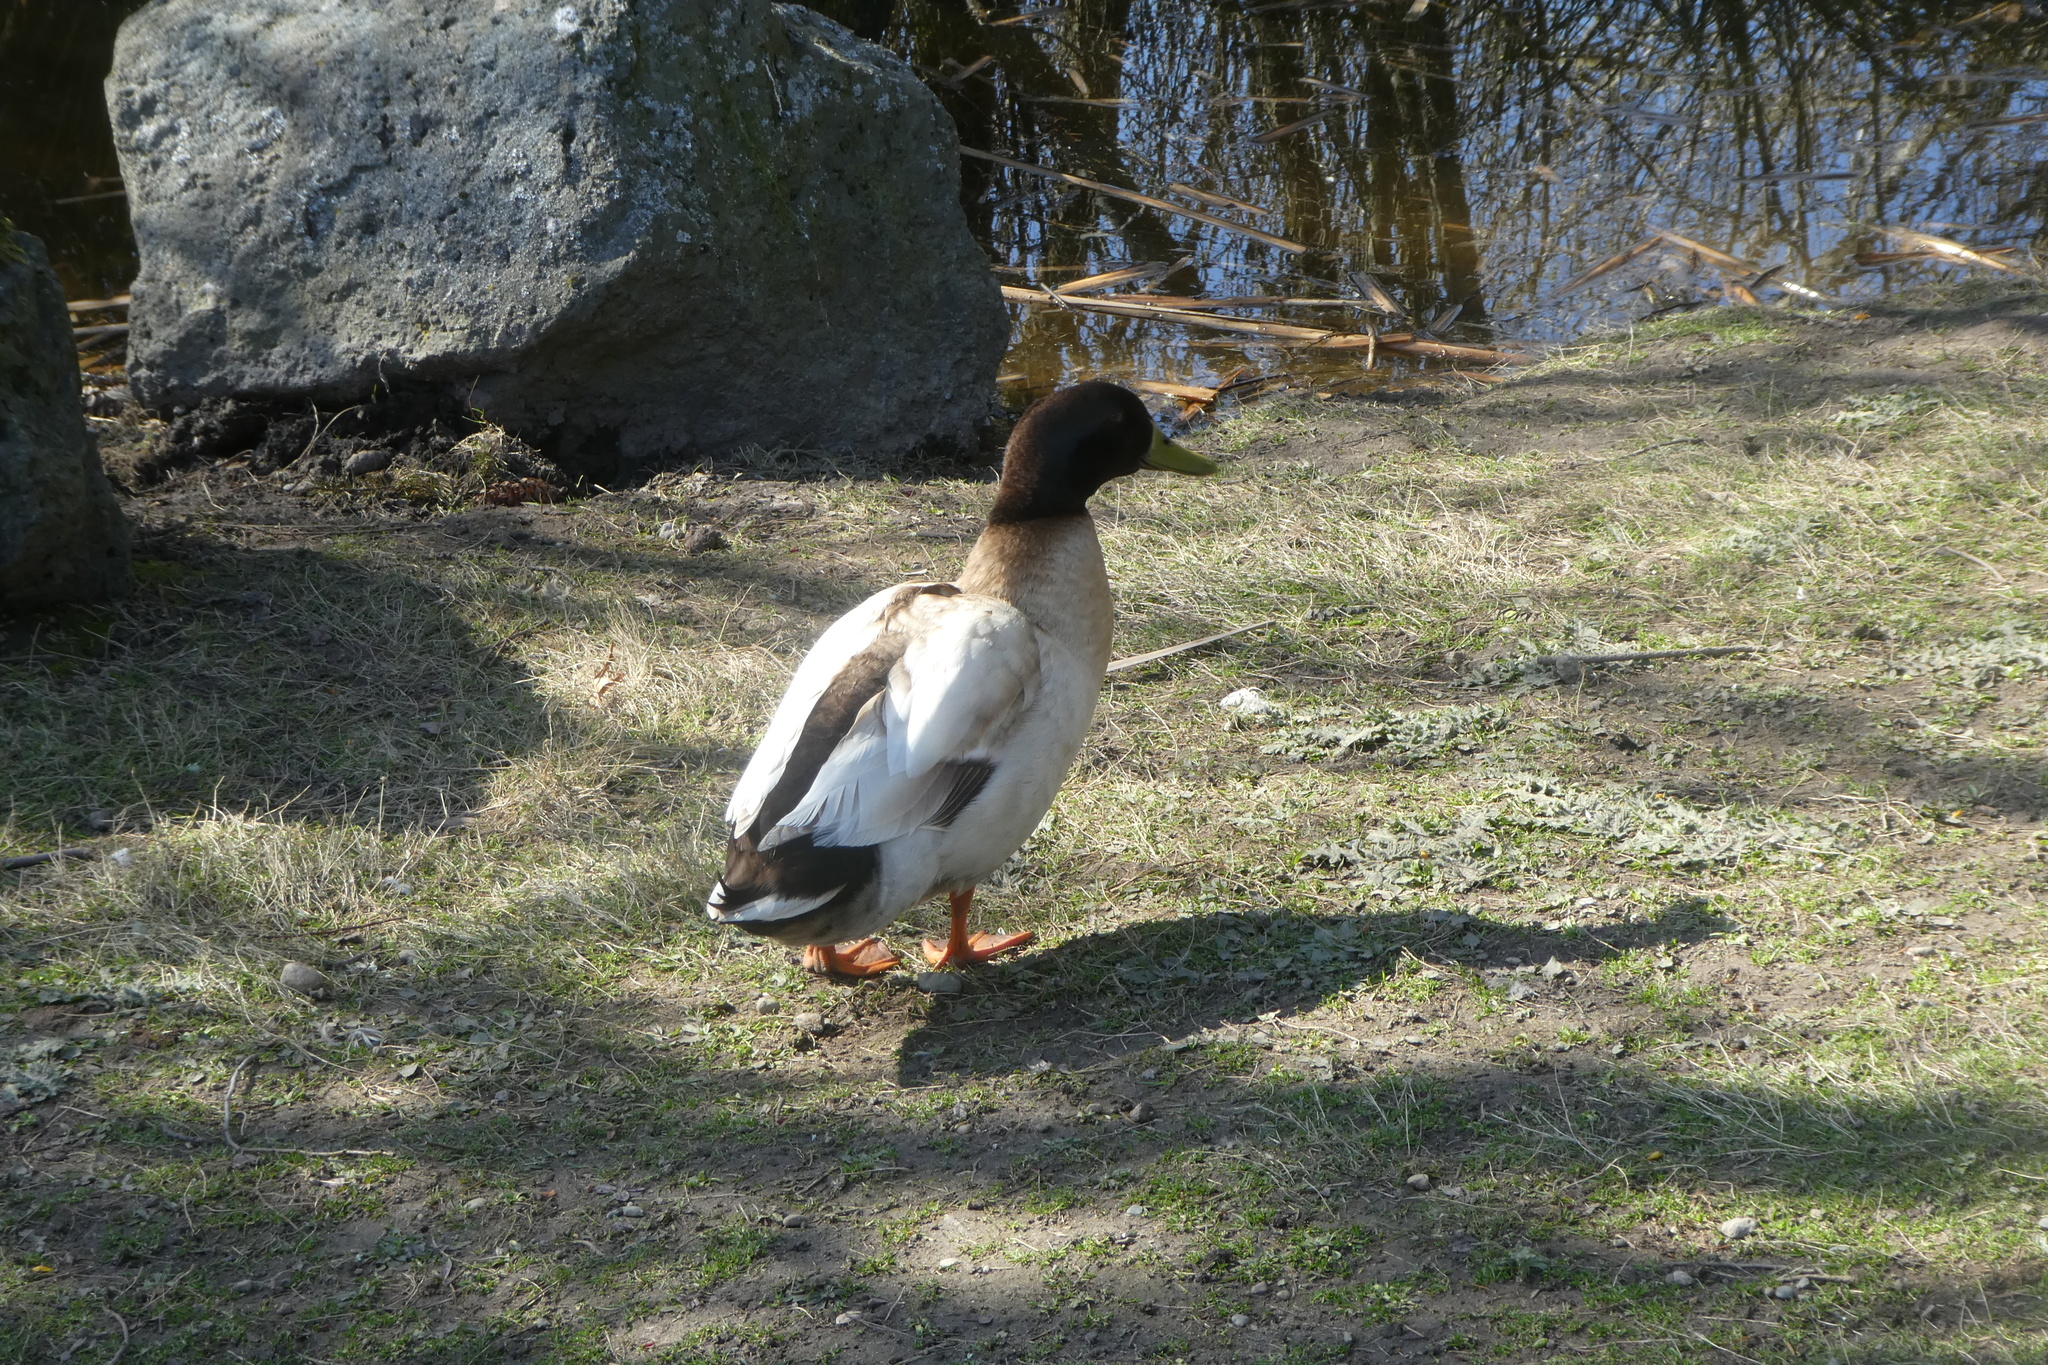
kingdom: Animalia
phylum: Chordata
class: Aves
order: Anseriformes
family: Anatidae
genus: Anas
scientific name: Anas platyrhynchos
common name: Mallard
